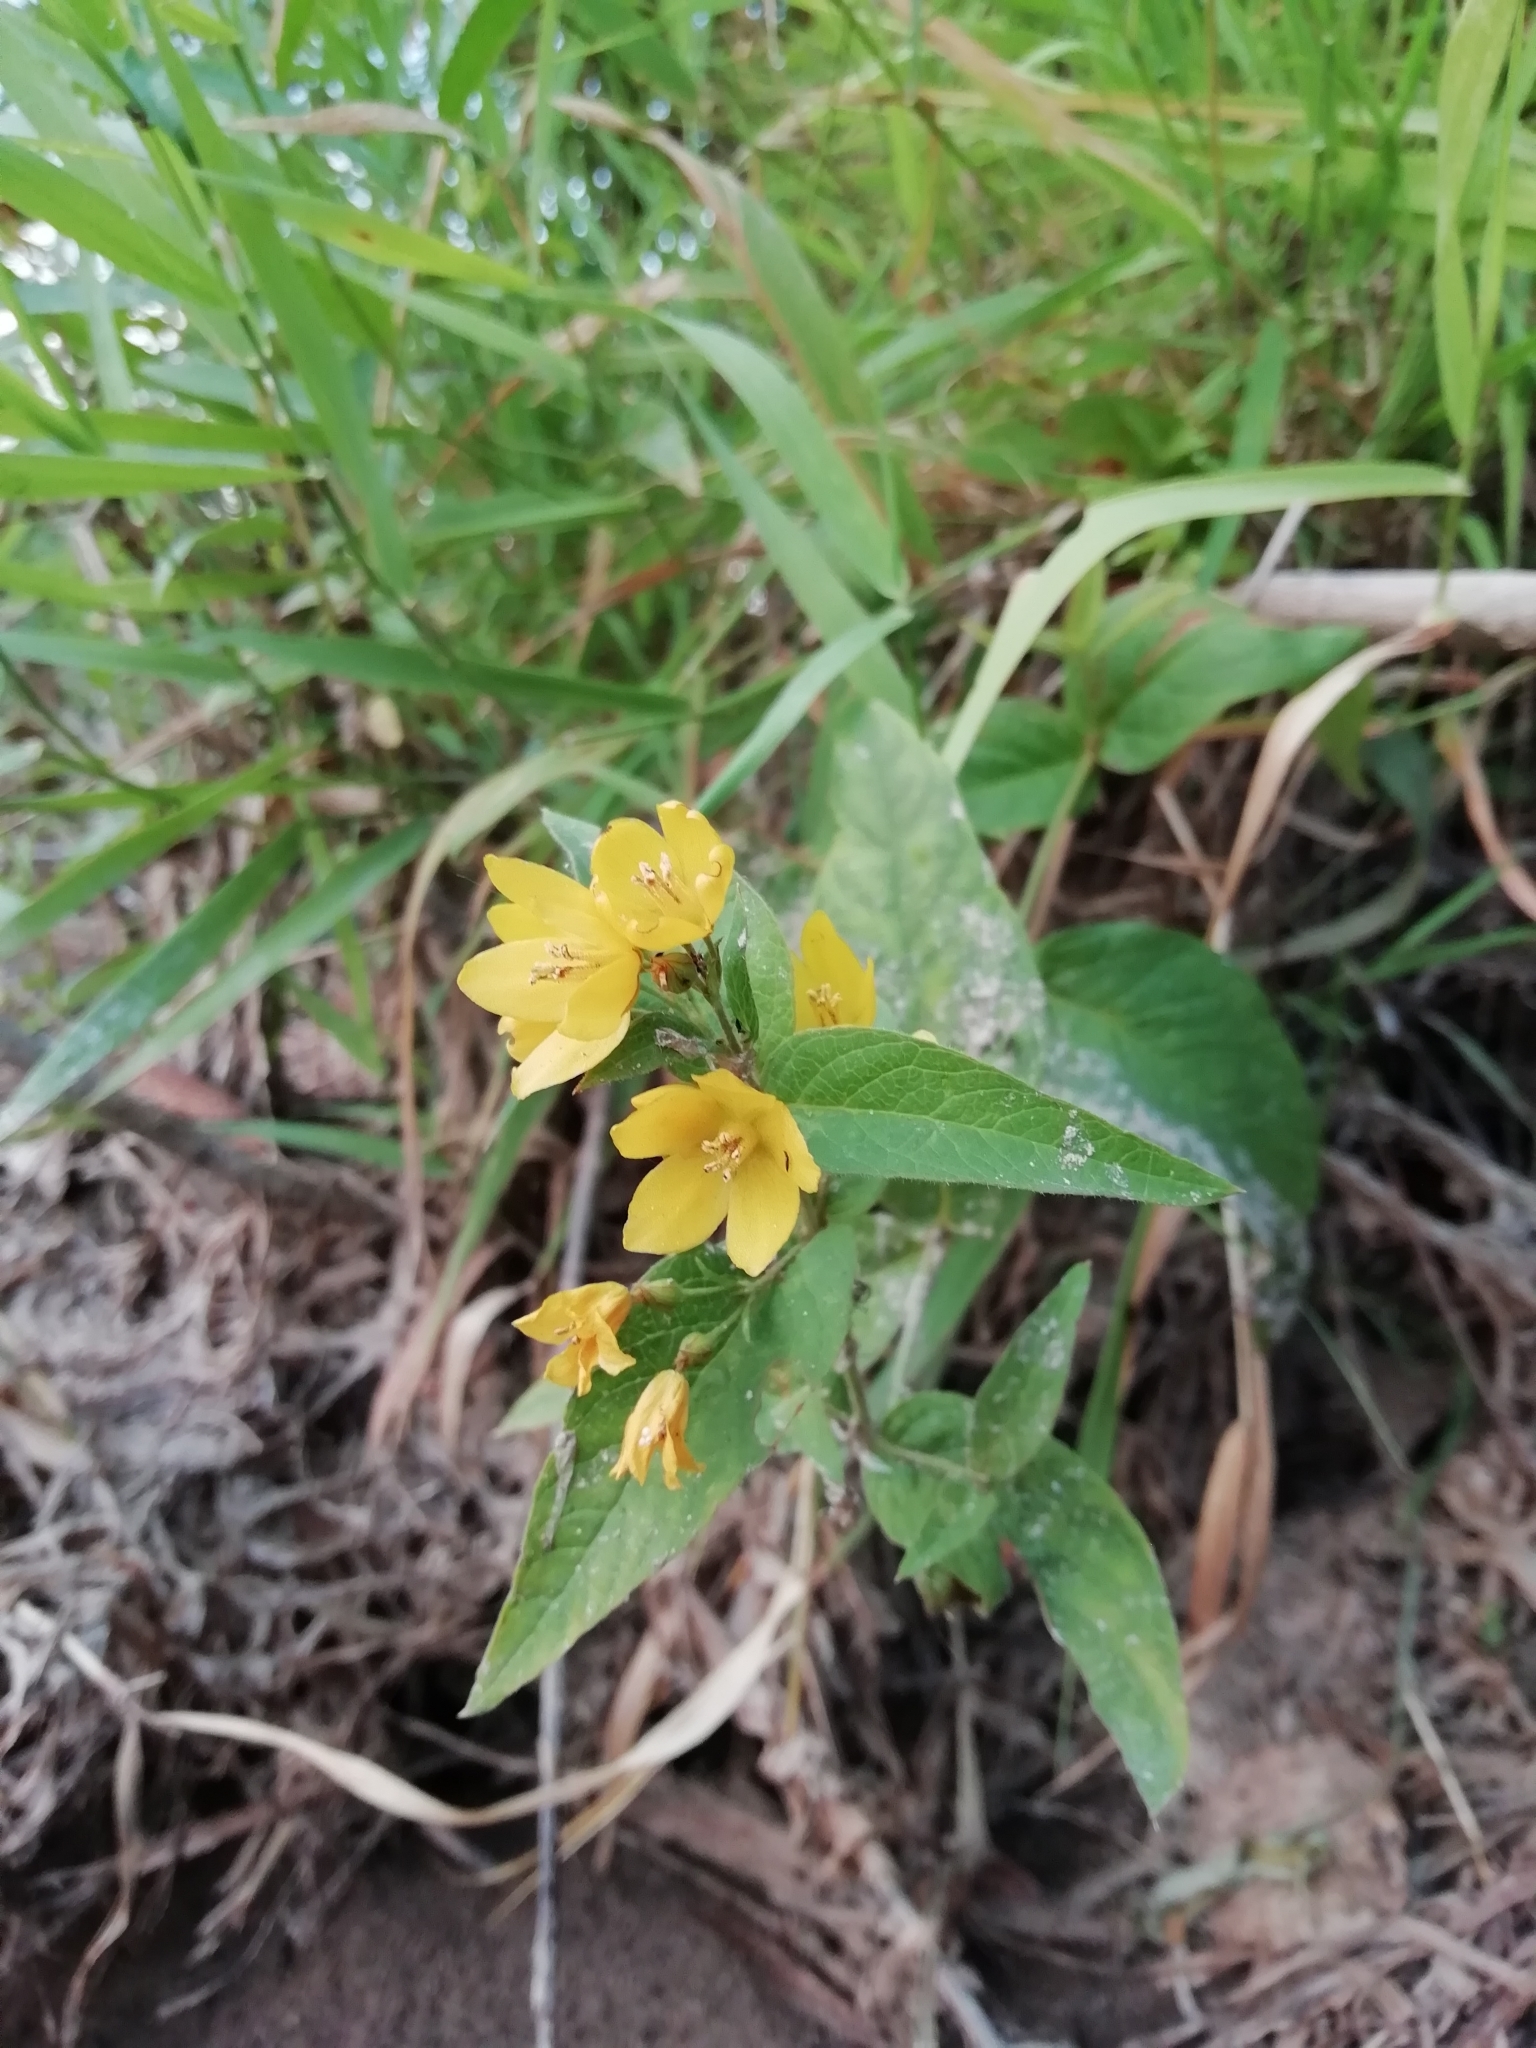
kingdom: Plantae
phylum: Tracheophyta
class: Magnoliopsida
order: Ericales
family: Primulaceae
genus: Lysimachia
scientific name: Lysimachia vulgaris
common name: Yellow loosestrife
